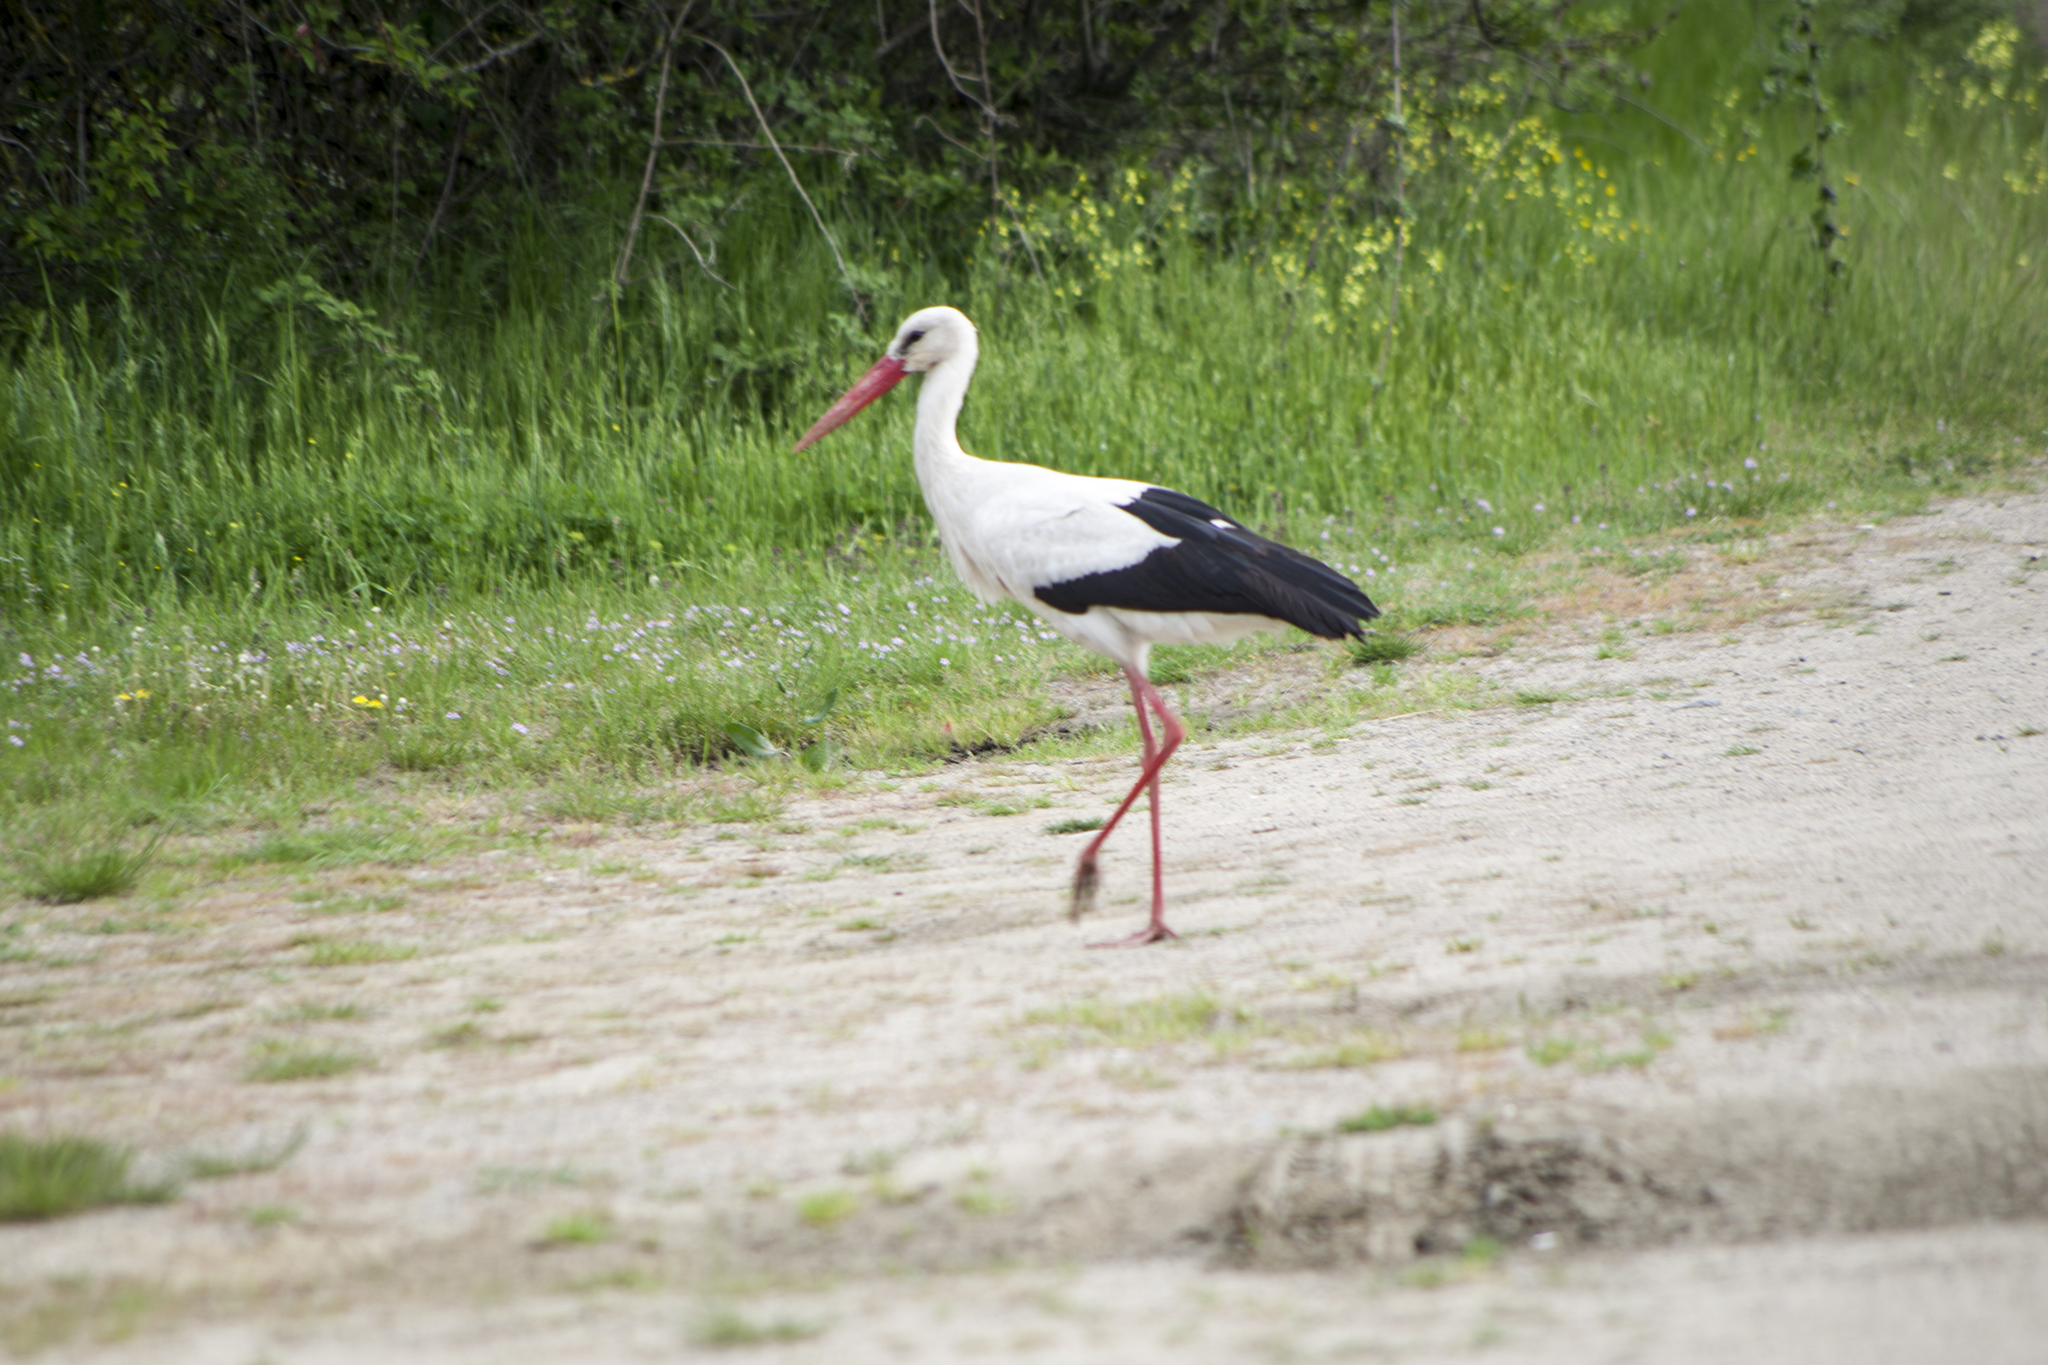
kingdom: Animalia
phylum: Chordata
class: Aves
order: Ciconiiformes
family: Ciconiidae
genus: Ciconia
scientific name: Ciconia ciconia
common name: White stork
